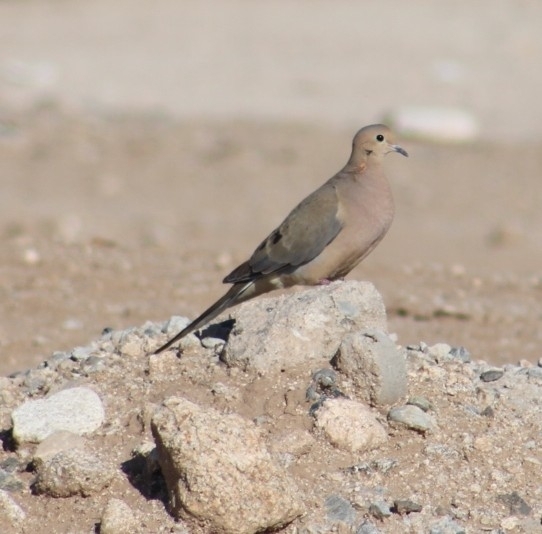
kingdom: Animalia
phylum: Chordata
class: Aves
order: Columbiformes
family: Columbidae
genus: Zenaida
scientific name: Zenaida macroura
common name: Mourning dove
